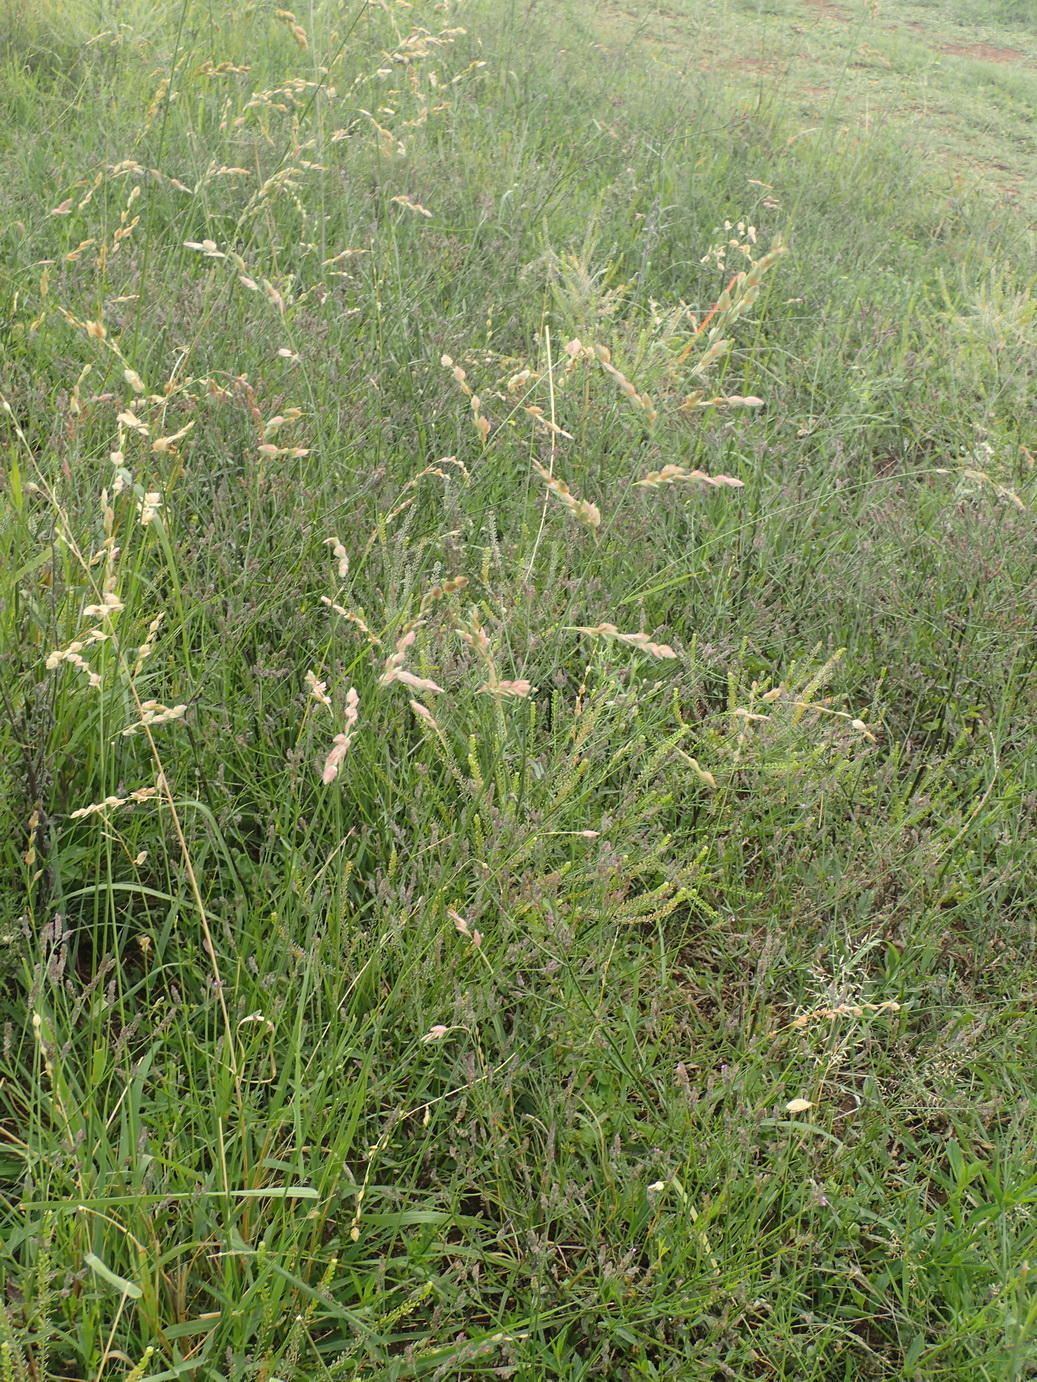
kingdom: Plantae
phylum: Tracheophyta
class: Liliopsida
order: Poales
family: Poaceae
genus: Eragrostis
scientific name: Eragrostis superba
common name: Wilman lovegrass
